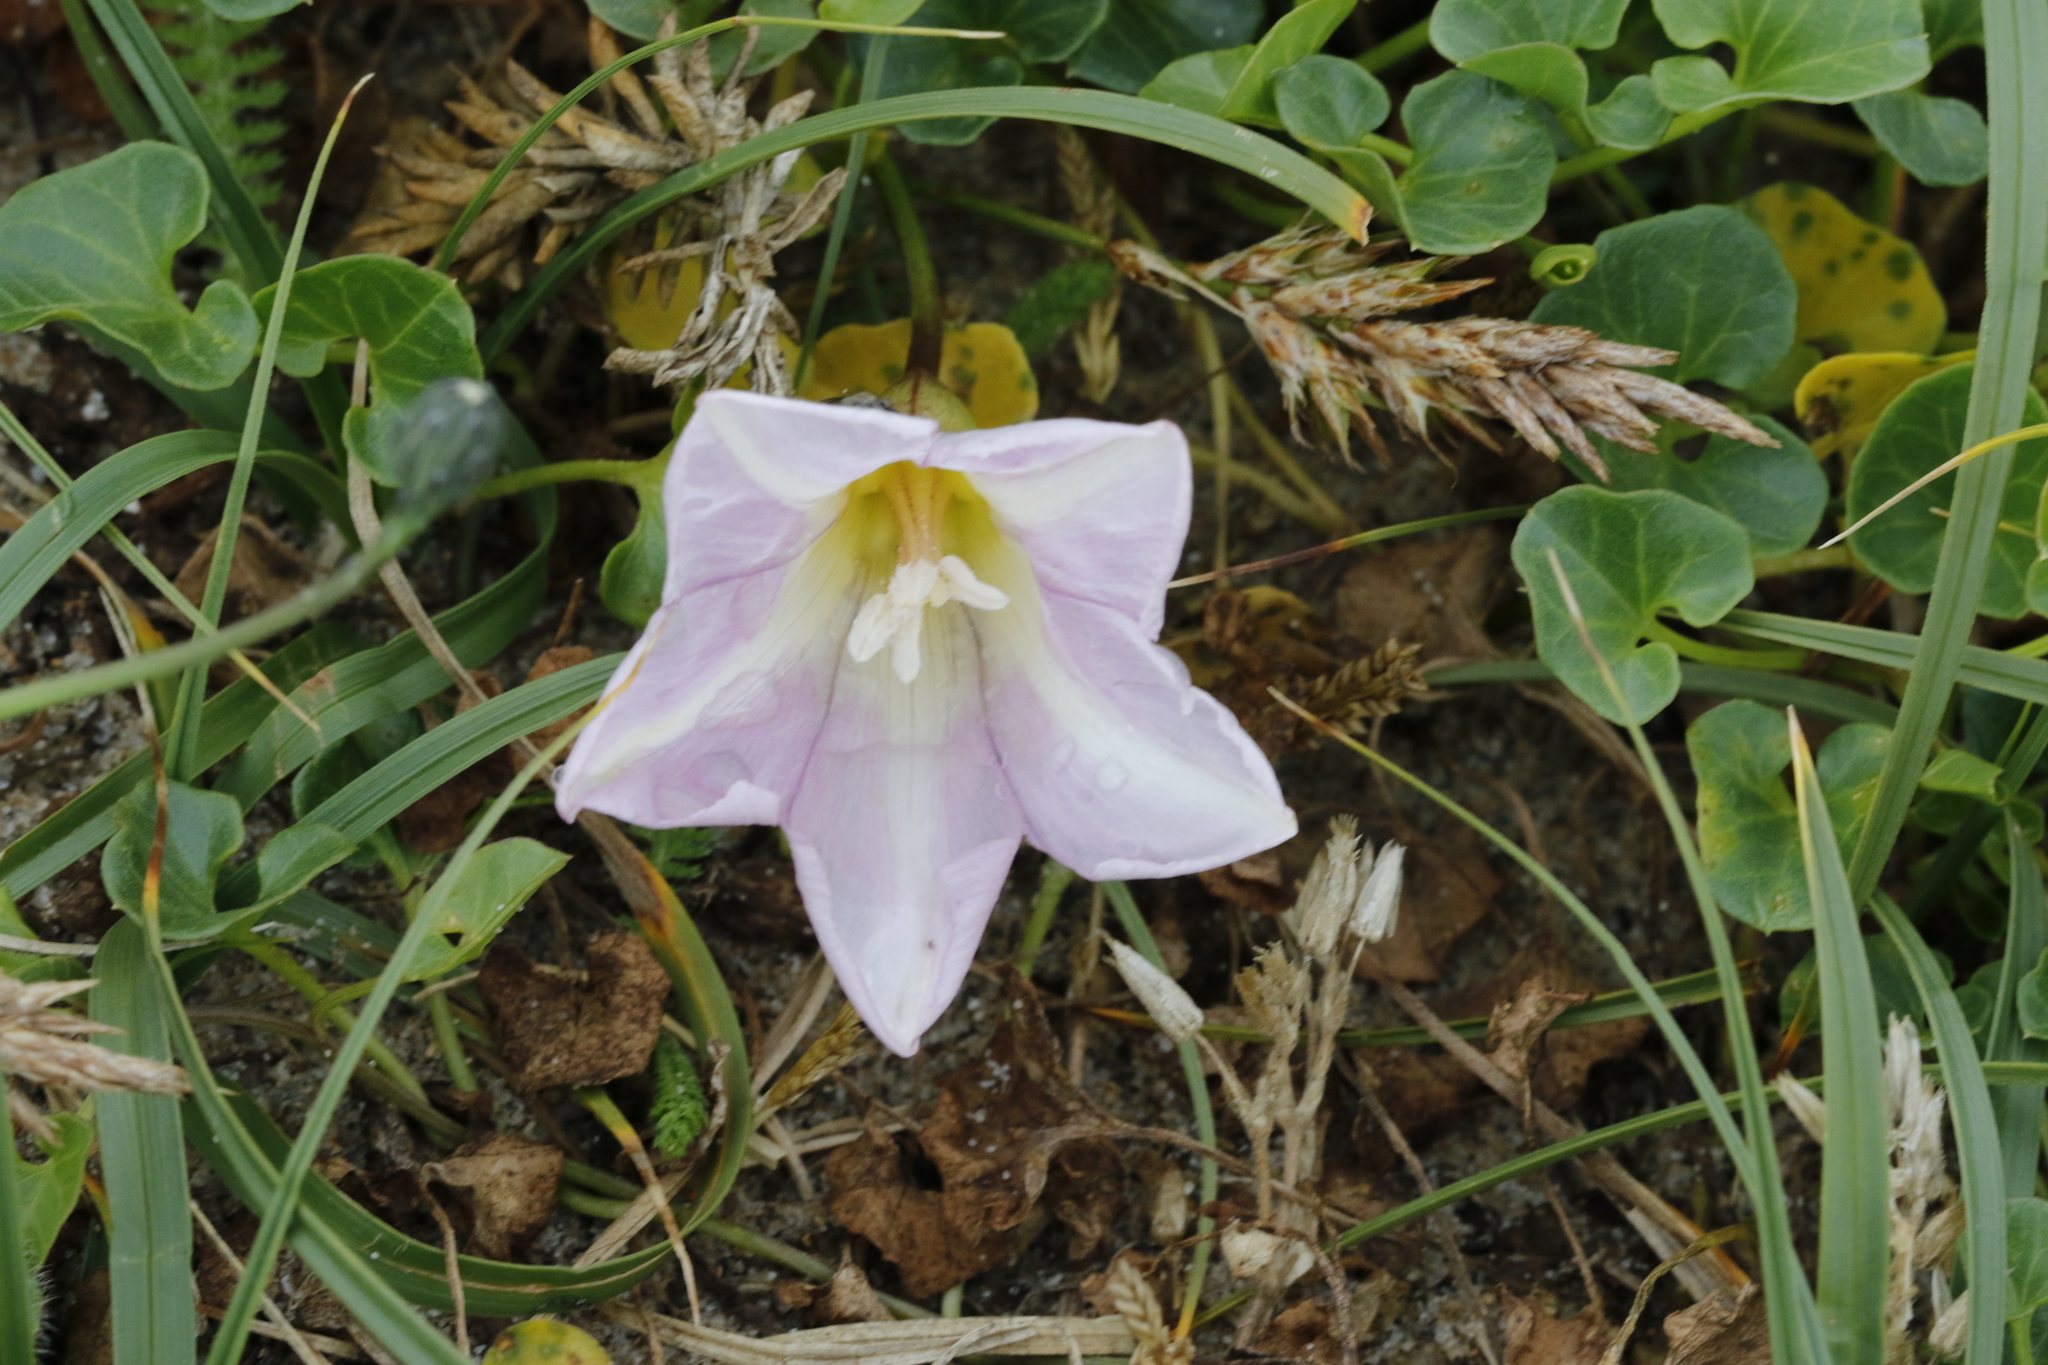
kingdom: Plantae
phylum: Tracheophyta
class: Magnoliopsida
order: Solanales
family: Convolvulaceae
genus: Calystegia
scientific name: Calystegia soldanella
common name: Sea bindweed
